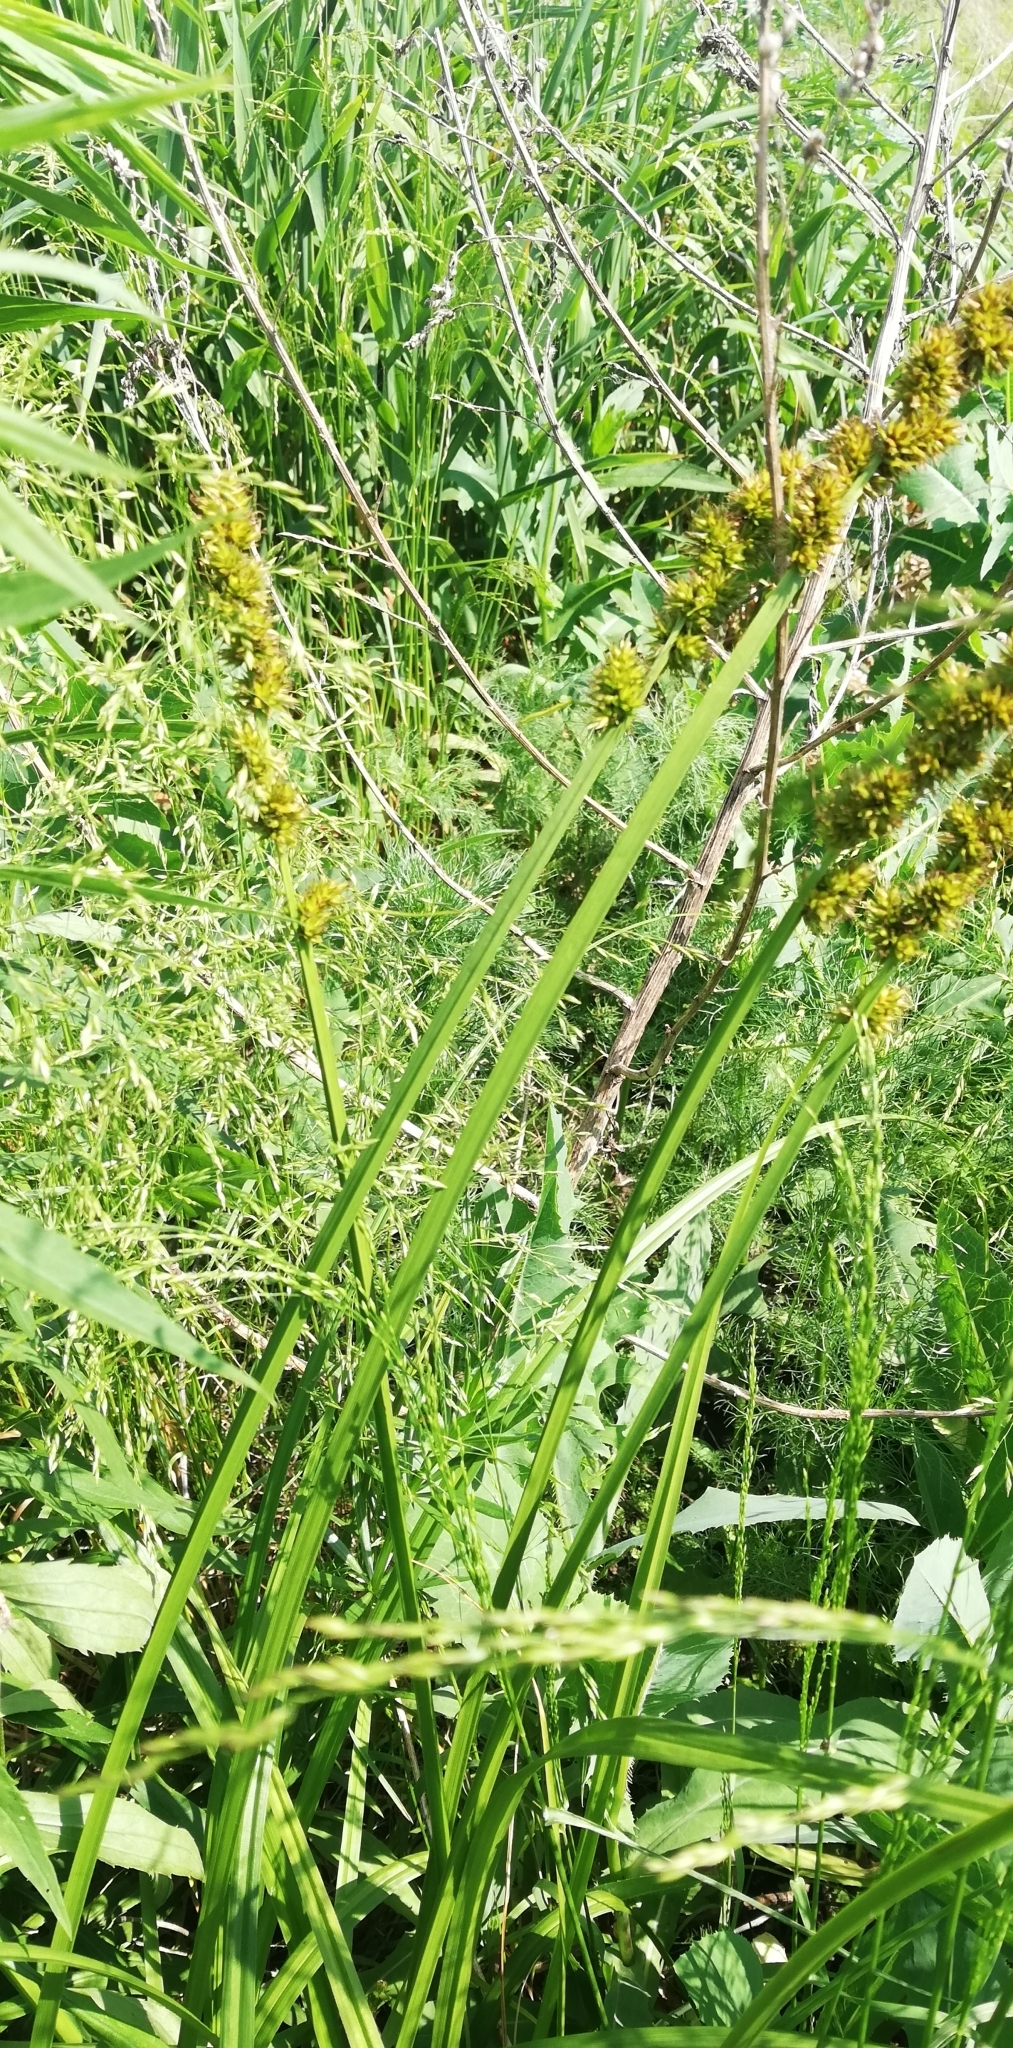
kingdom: Plantae
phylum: Tracheophyta
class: Liliopsida
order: Poales
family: Cyperaceae
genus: Carex
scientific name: Carex vulpina
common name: True fox-sedge
